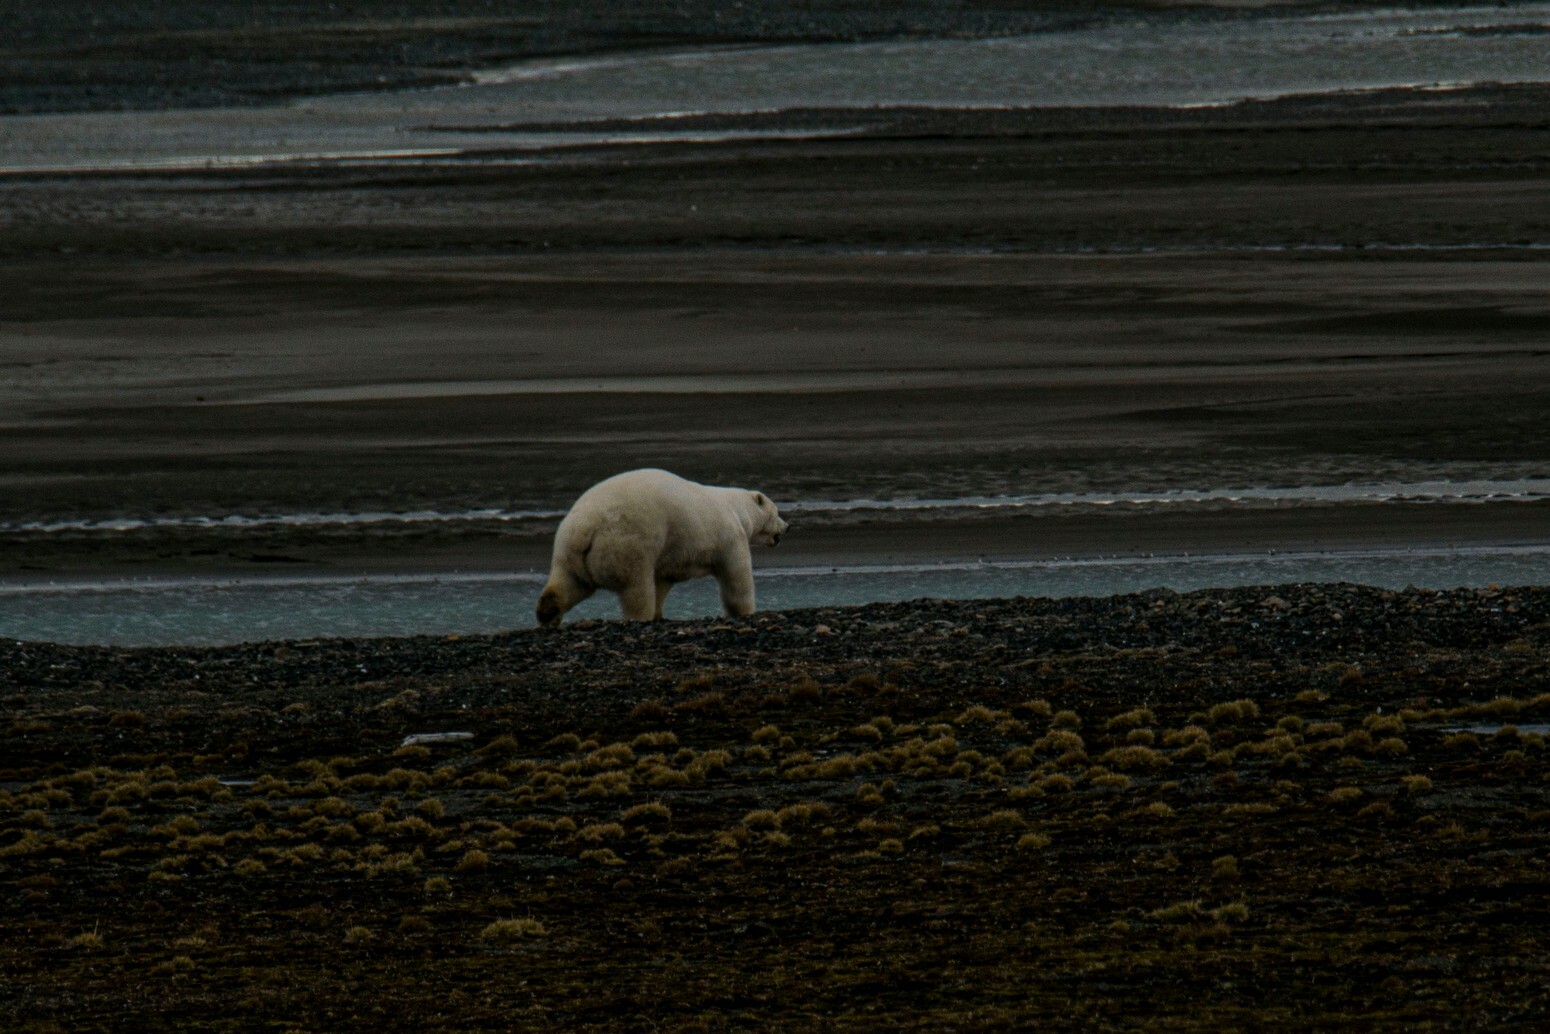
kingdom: Animalia
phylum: Chordata
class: Mammalia
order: Carnivora
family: Ursidae
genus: Ursus
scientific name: Ursus maritimus
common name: Polar bear
